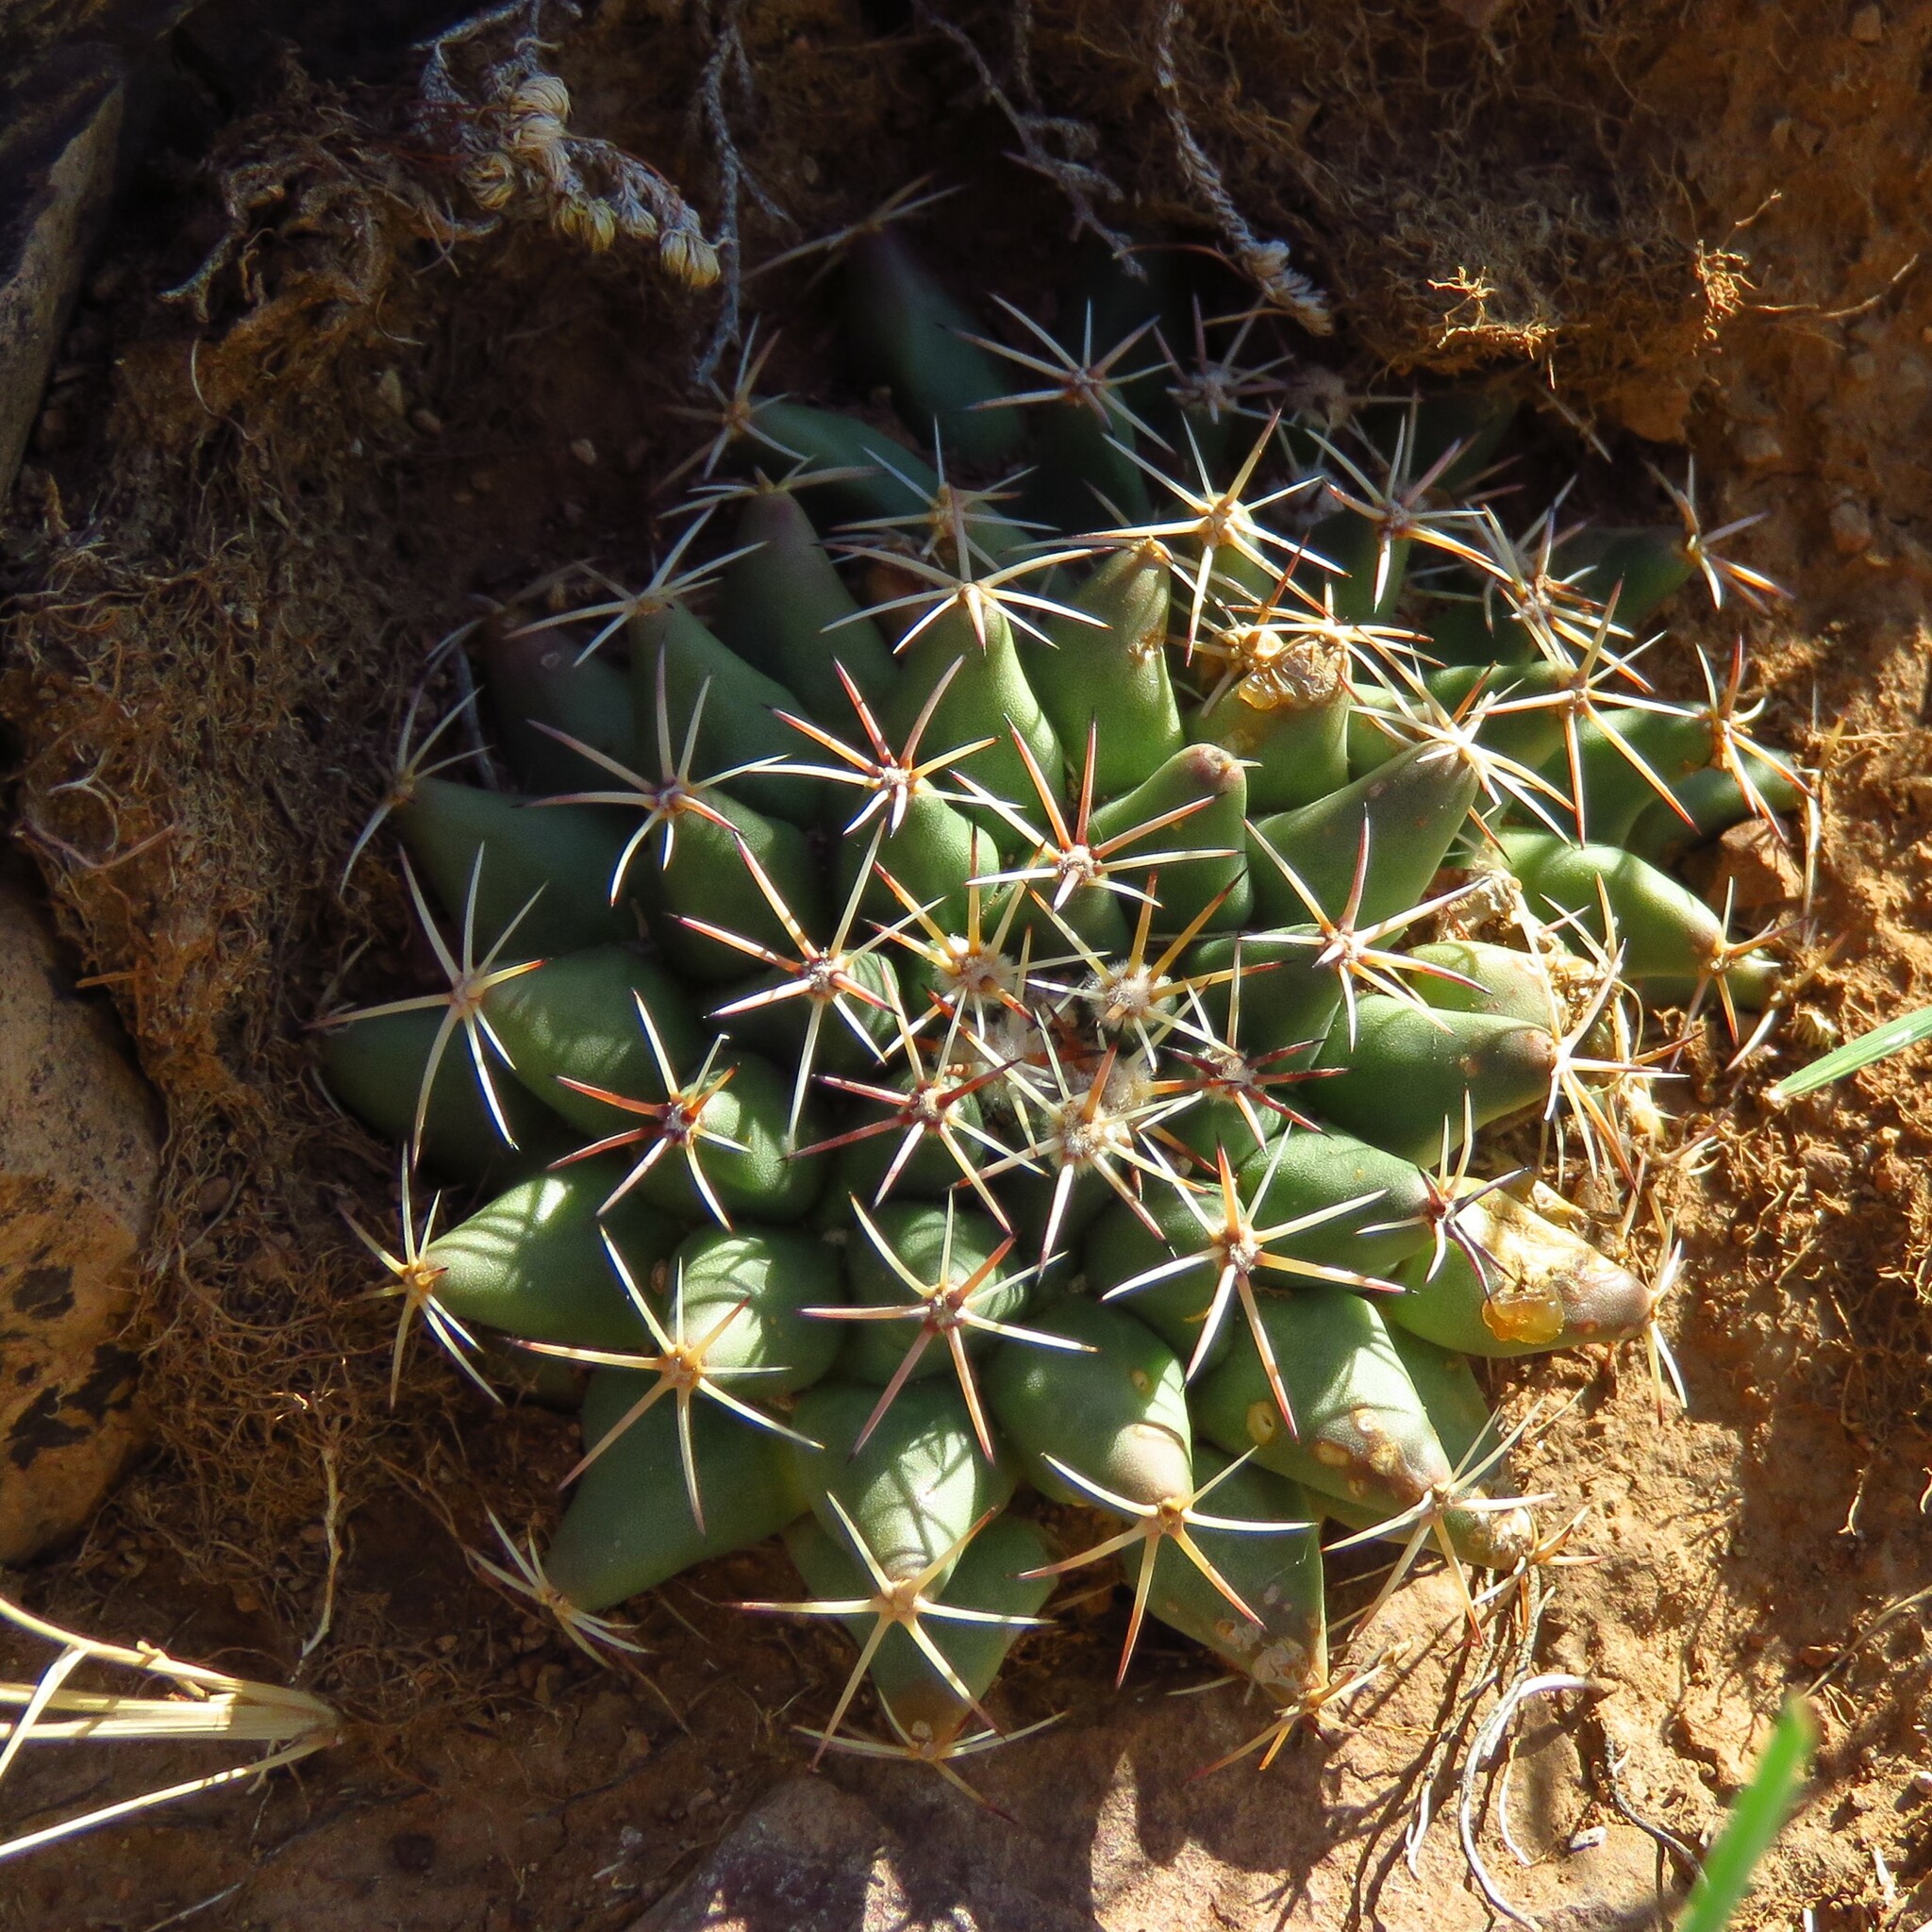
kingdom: Plantae
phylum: Tracheophyta
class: Magnoliopsida
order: Caryophyllales
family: Cactaceae
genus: Mammillaria
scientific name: Mammillaria heyderi
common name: Little nipple cactus
